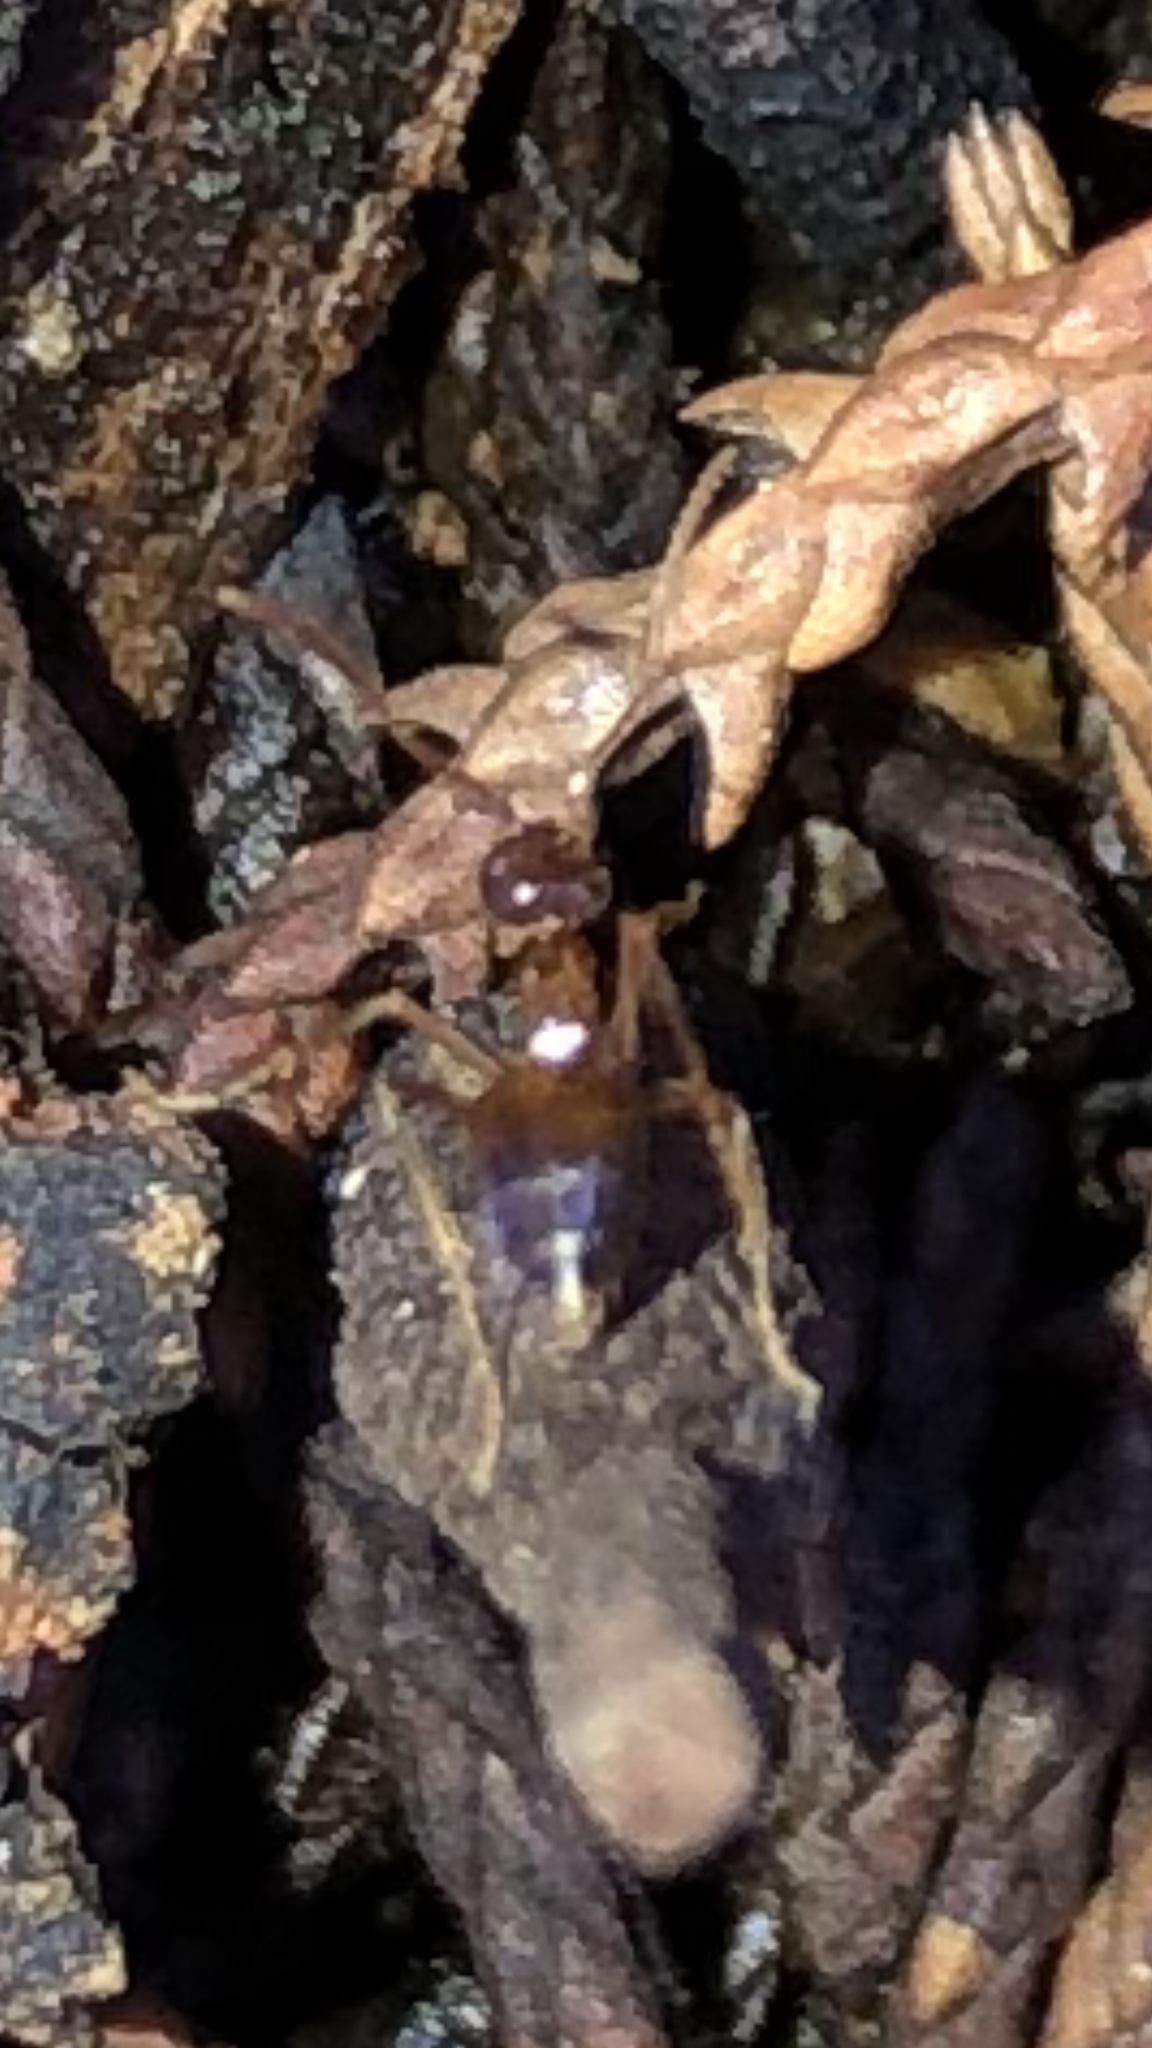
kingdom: Animalia
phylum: Arthropoda
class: Insecta
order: Hymenoptera
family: Formicidae
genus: Prenolepis
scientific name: Prenolepis imparis
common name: Small honey ant
